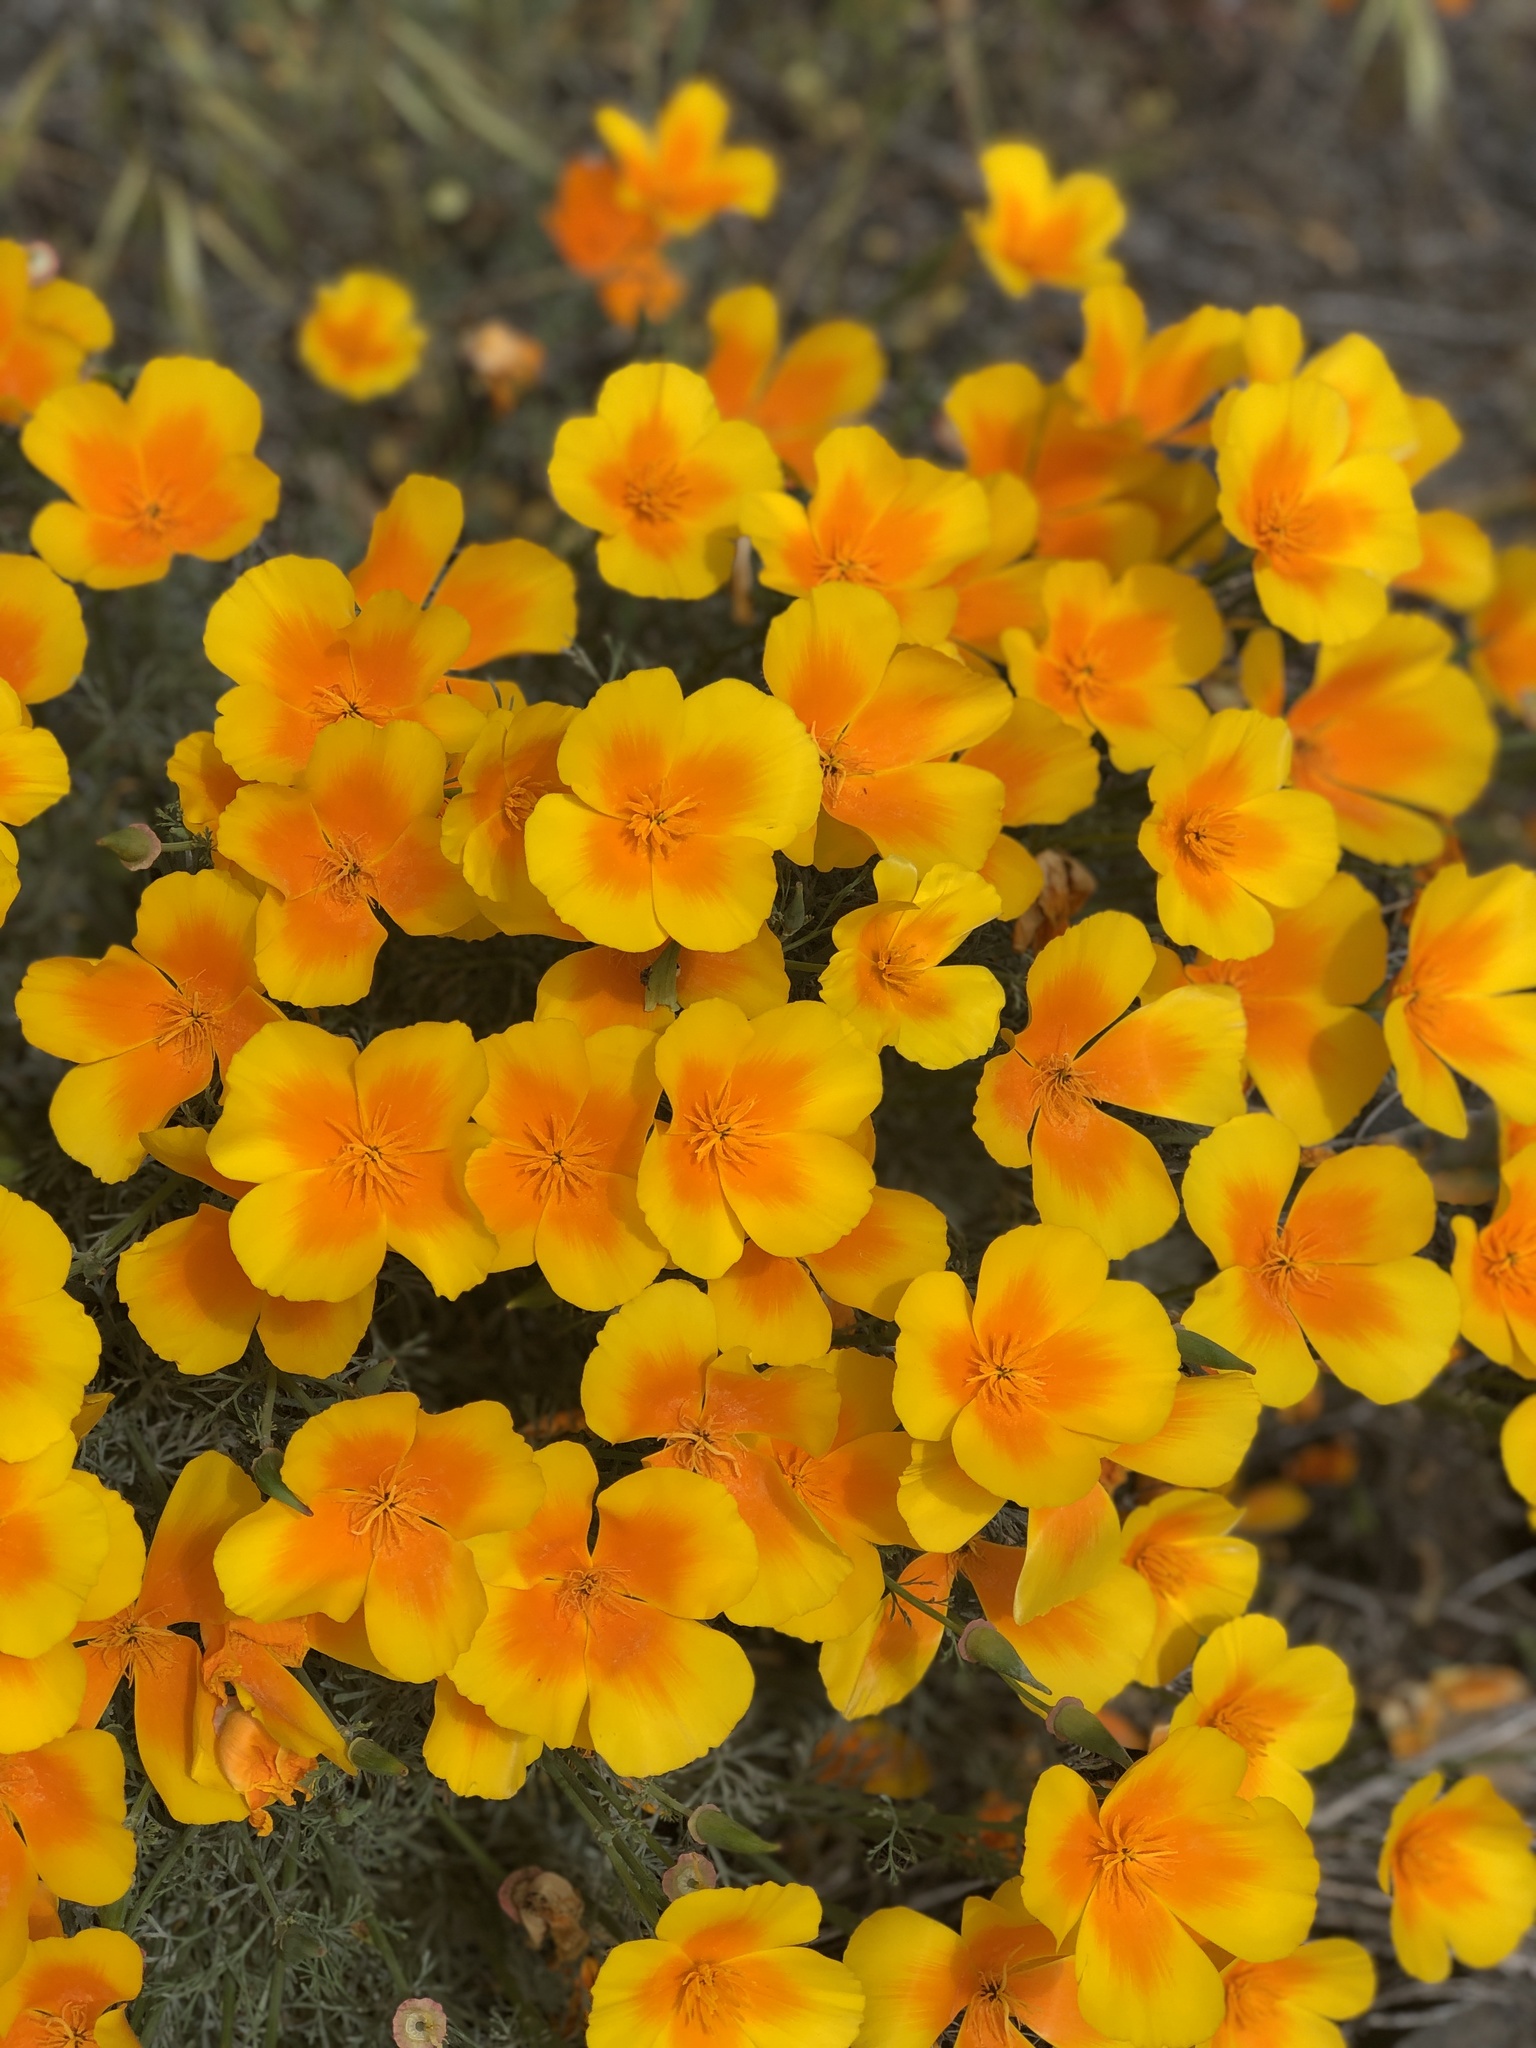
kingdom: Plantae
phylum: Tracheophyta
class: Magnoliopsida
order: Ranunculales
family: Papaveraceae
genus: Eschscholzia
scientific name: Eschscholzia californica
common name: California poppy
